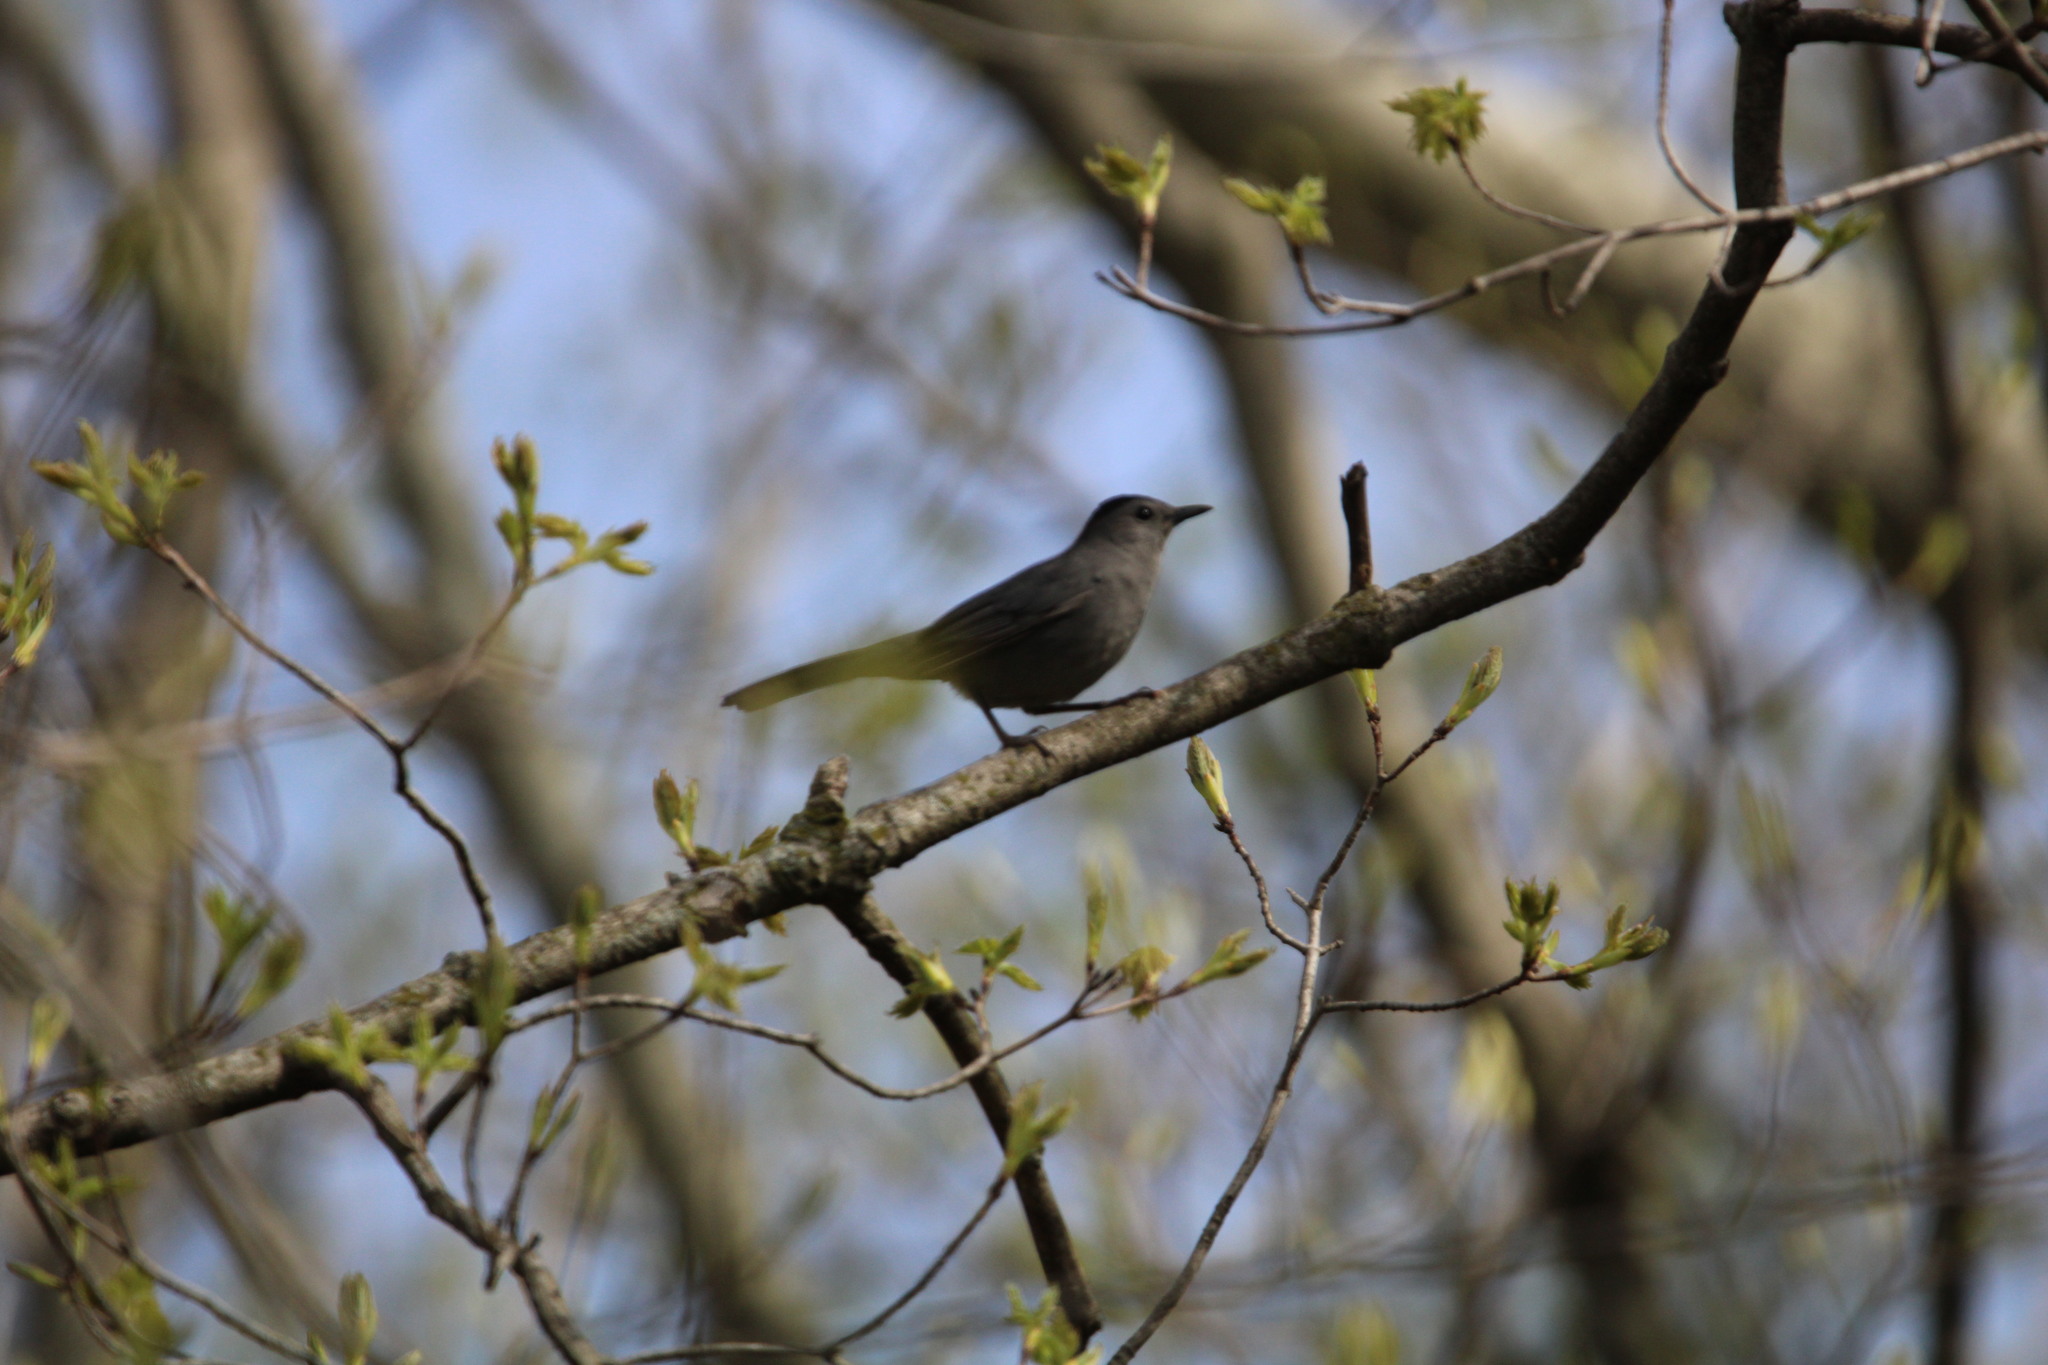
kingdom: Animalia
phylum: Chordata
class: Aves
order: Passeriformes
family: Mimidae
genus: Dumetella
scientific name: Dumetella carolinensis
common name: Gray catbird
